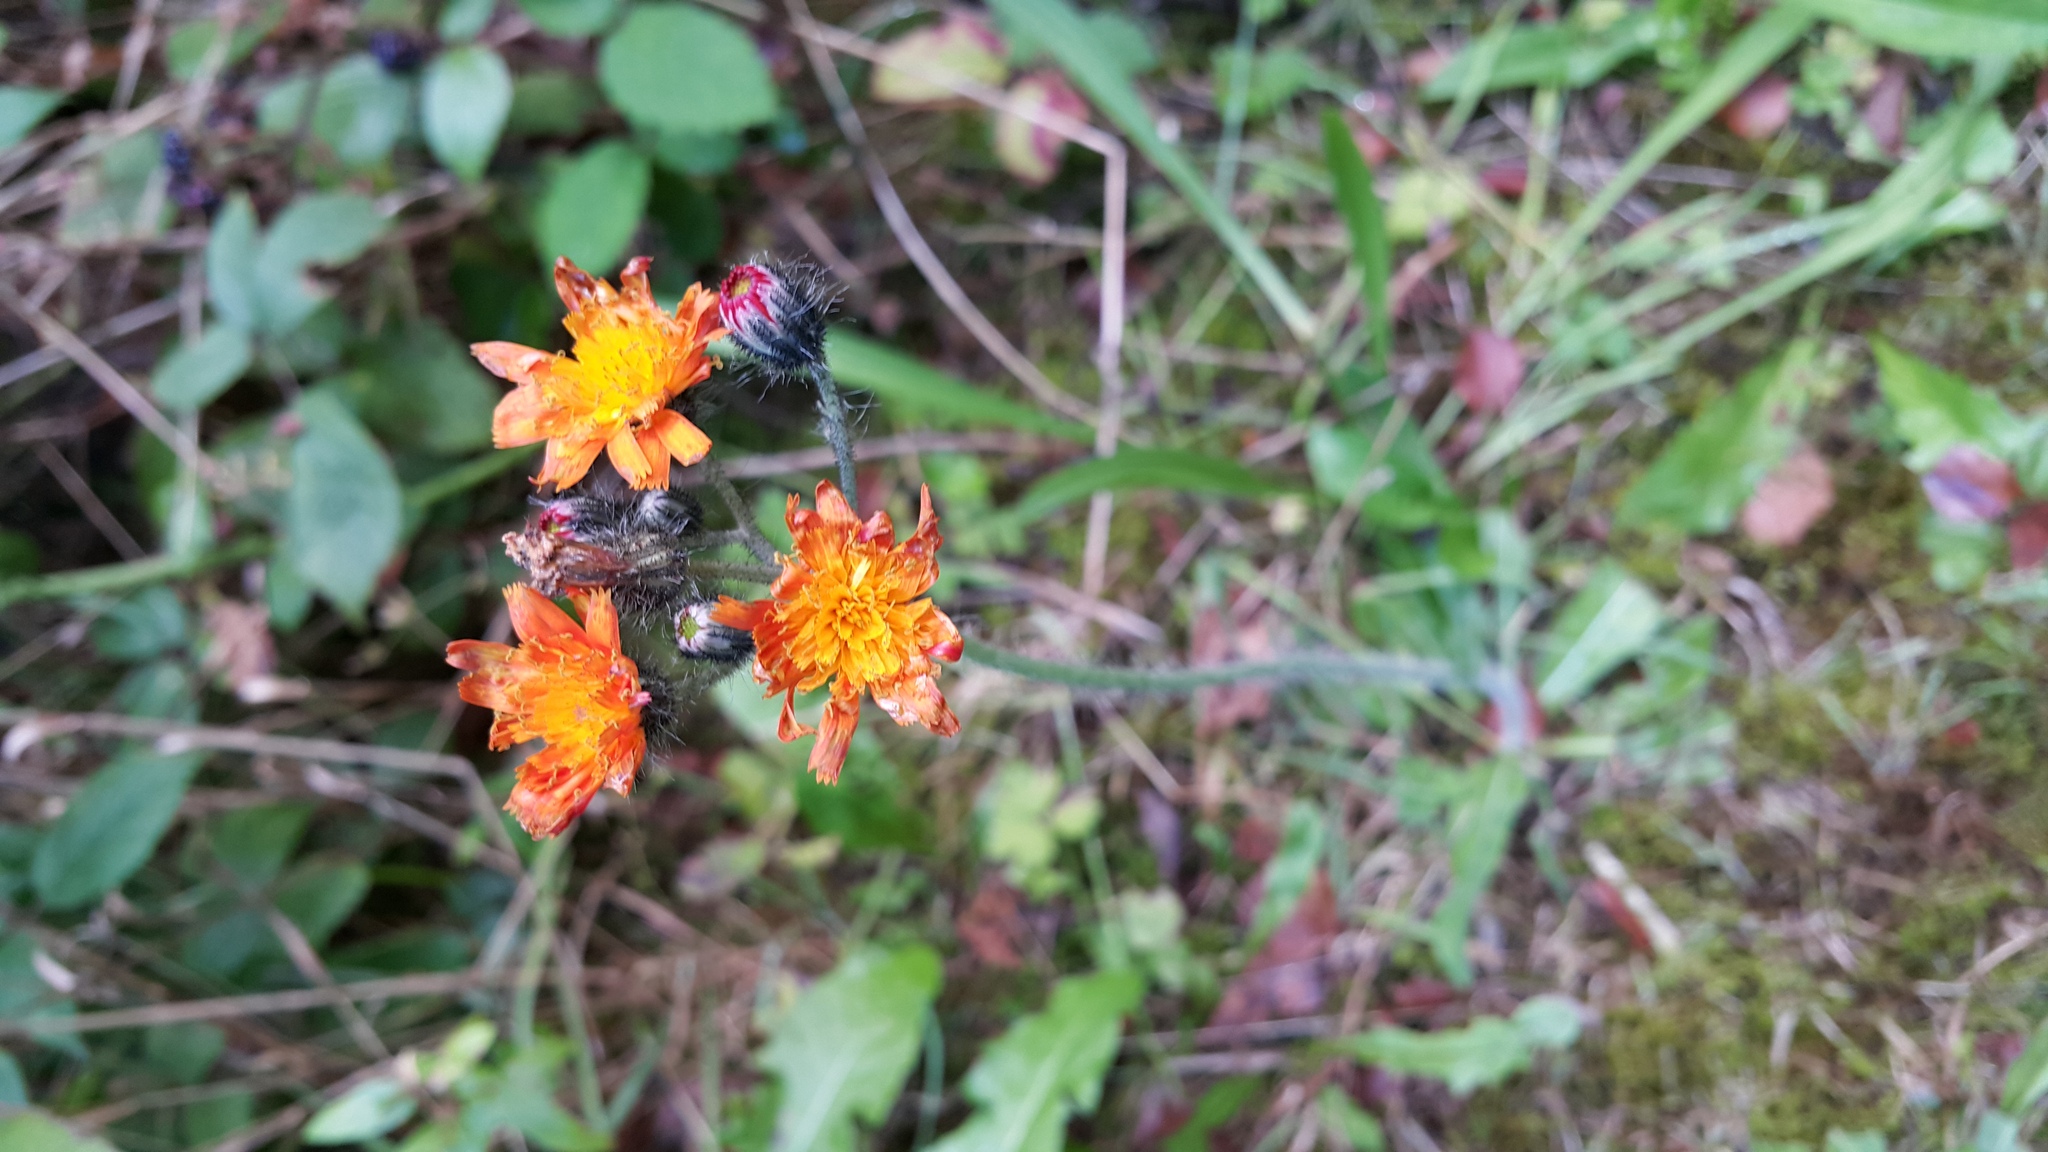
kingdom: Plantae
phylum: Tracheophyta
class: Magnoliopsida
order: Asterales
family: Asteraceae
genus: Pilosella
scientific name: Pilosella aurantiaca
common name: Fox-and-cubs
